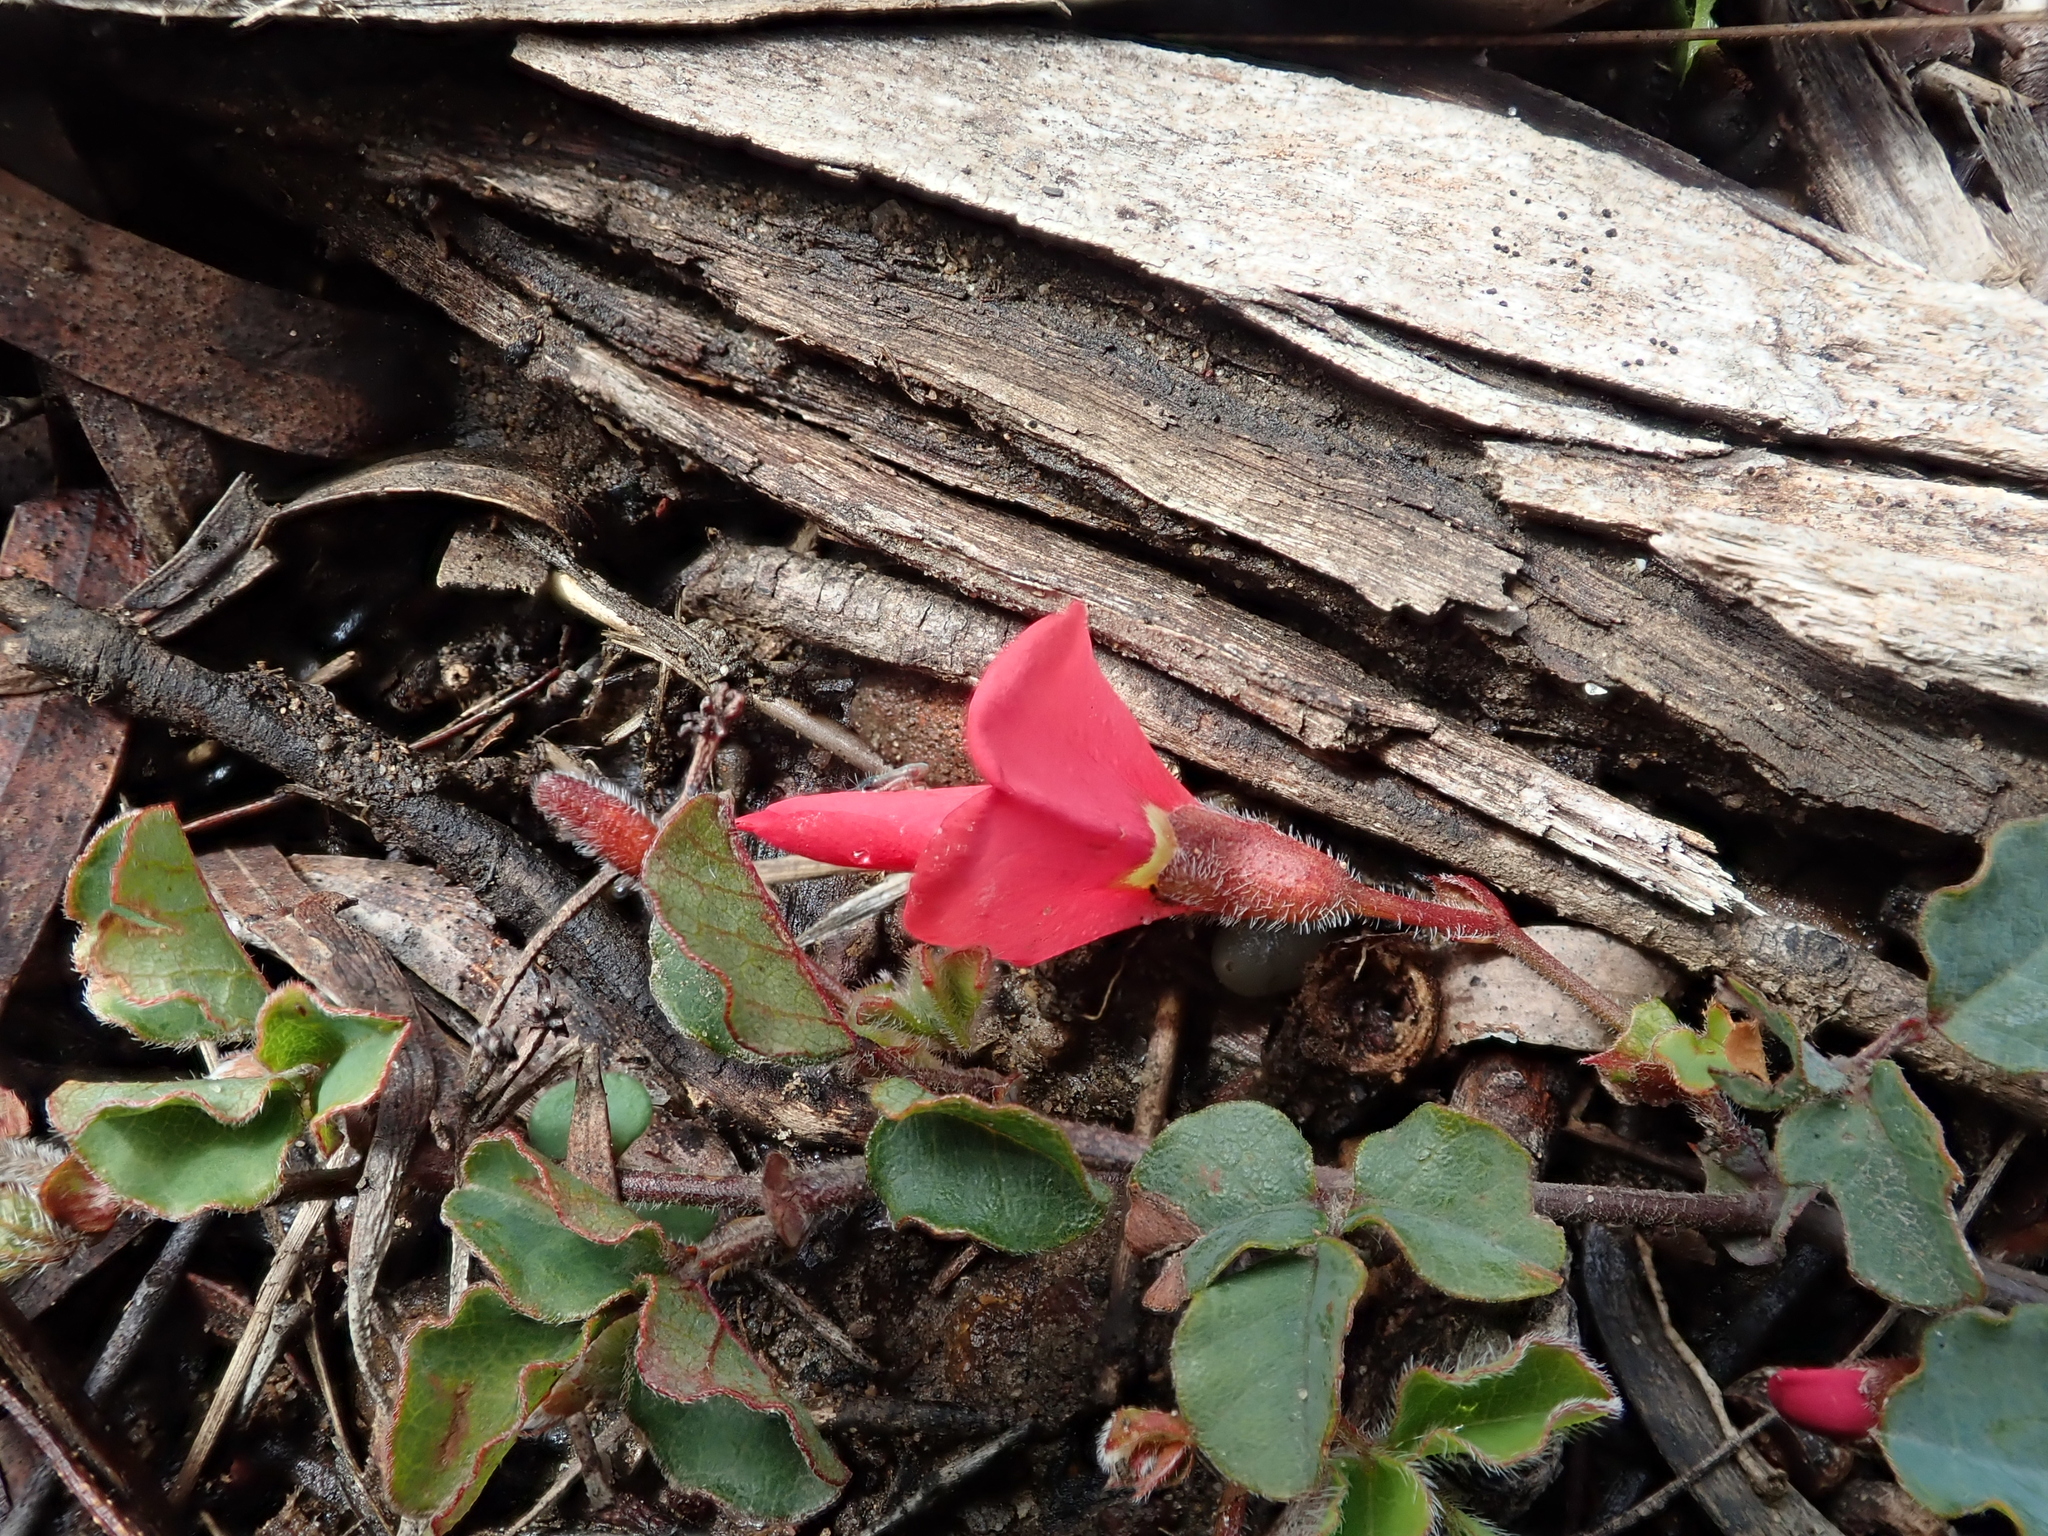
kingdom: Plantae
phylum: Tracheophyta
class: Magnoliopsida
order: Fabales
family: Fabaceae
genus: Kennedia
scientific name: Kennedia prostrata
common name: Running-postman
